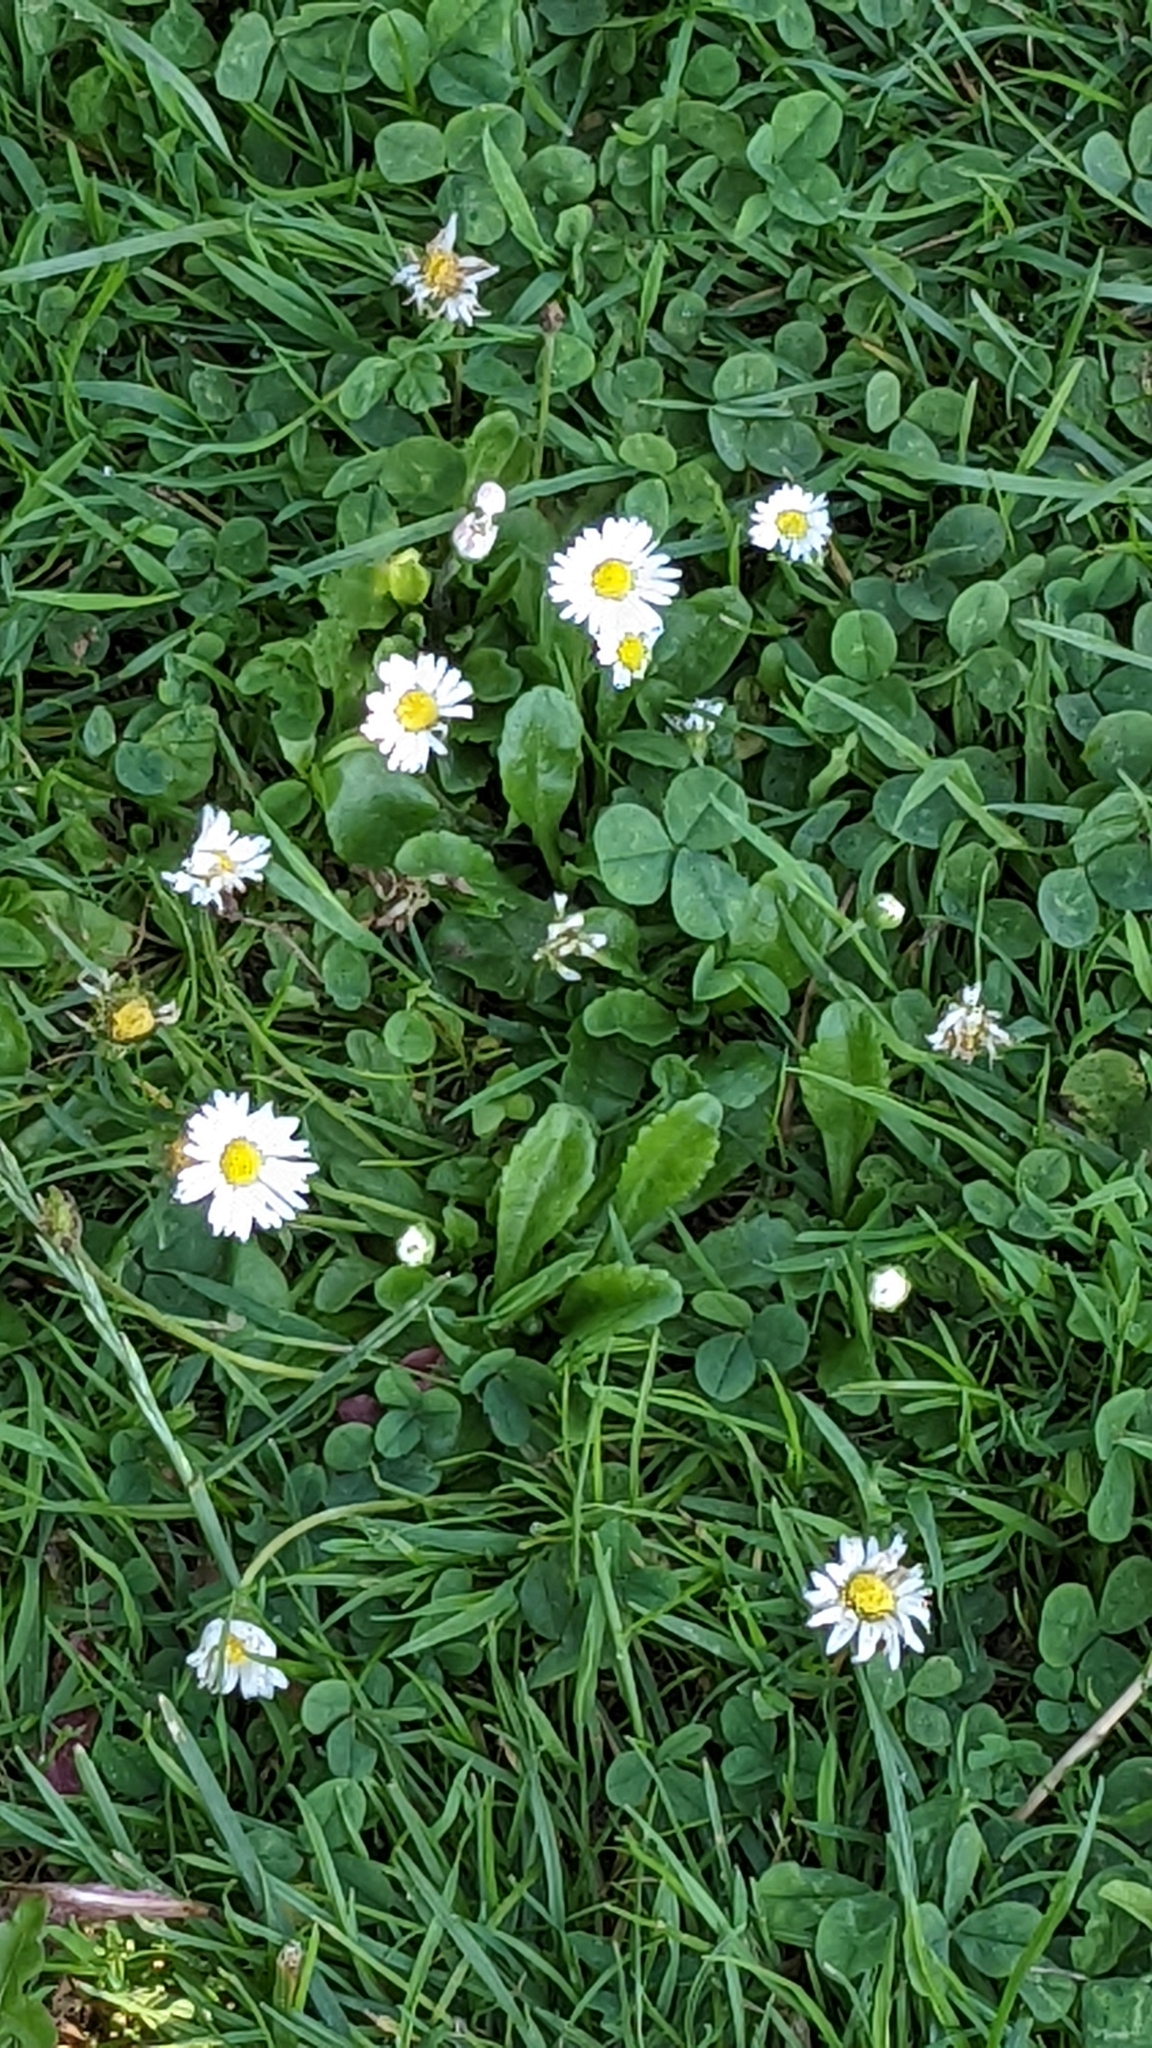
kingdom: Plantae
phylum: Tracheophyta
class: Magnoliopsida
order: Asterales
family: Asteraceae
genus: Bellis
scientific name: Bellis perennis
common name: Lawndaisy
